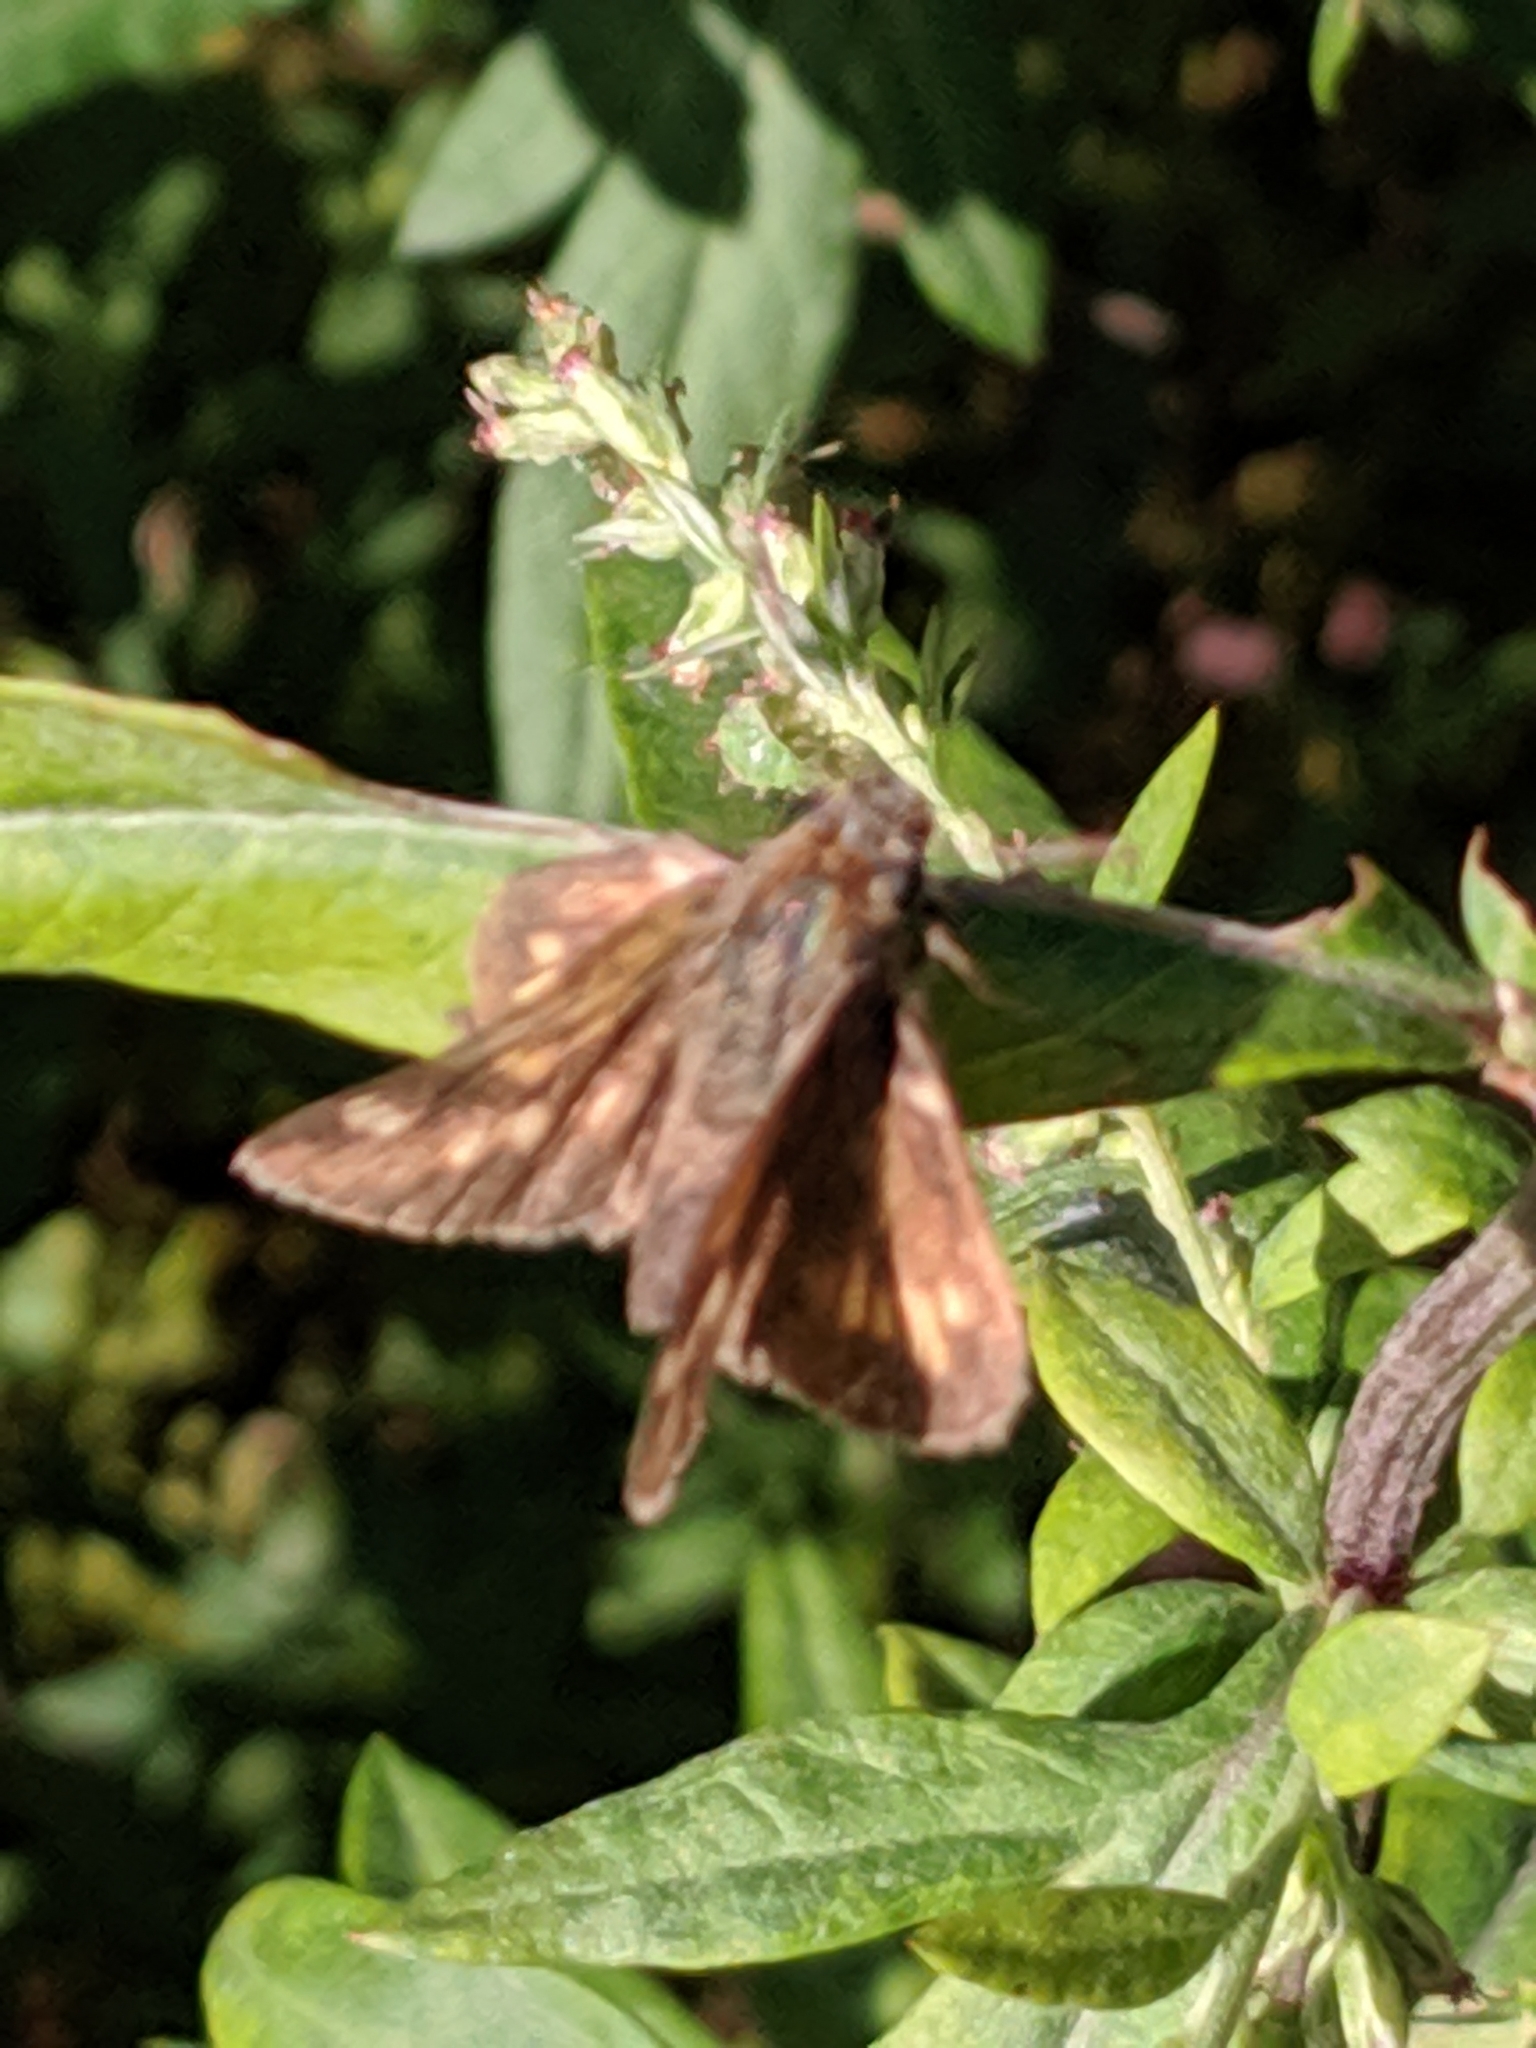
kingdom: Animalia
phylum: Arthropoda
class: Insecta
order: Lepidoptera
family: Hesperiidae
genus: Atalopedes
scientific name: Atalopedes
